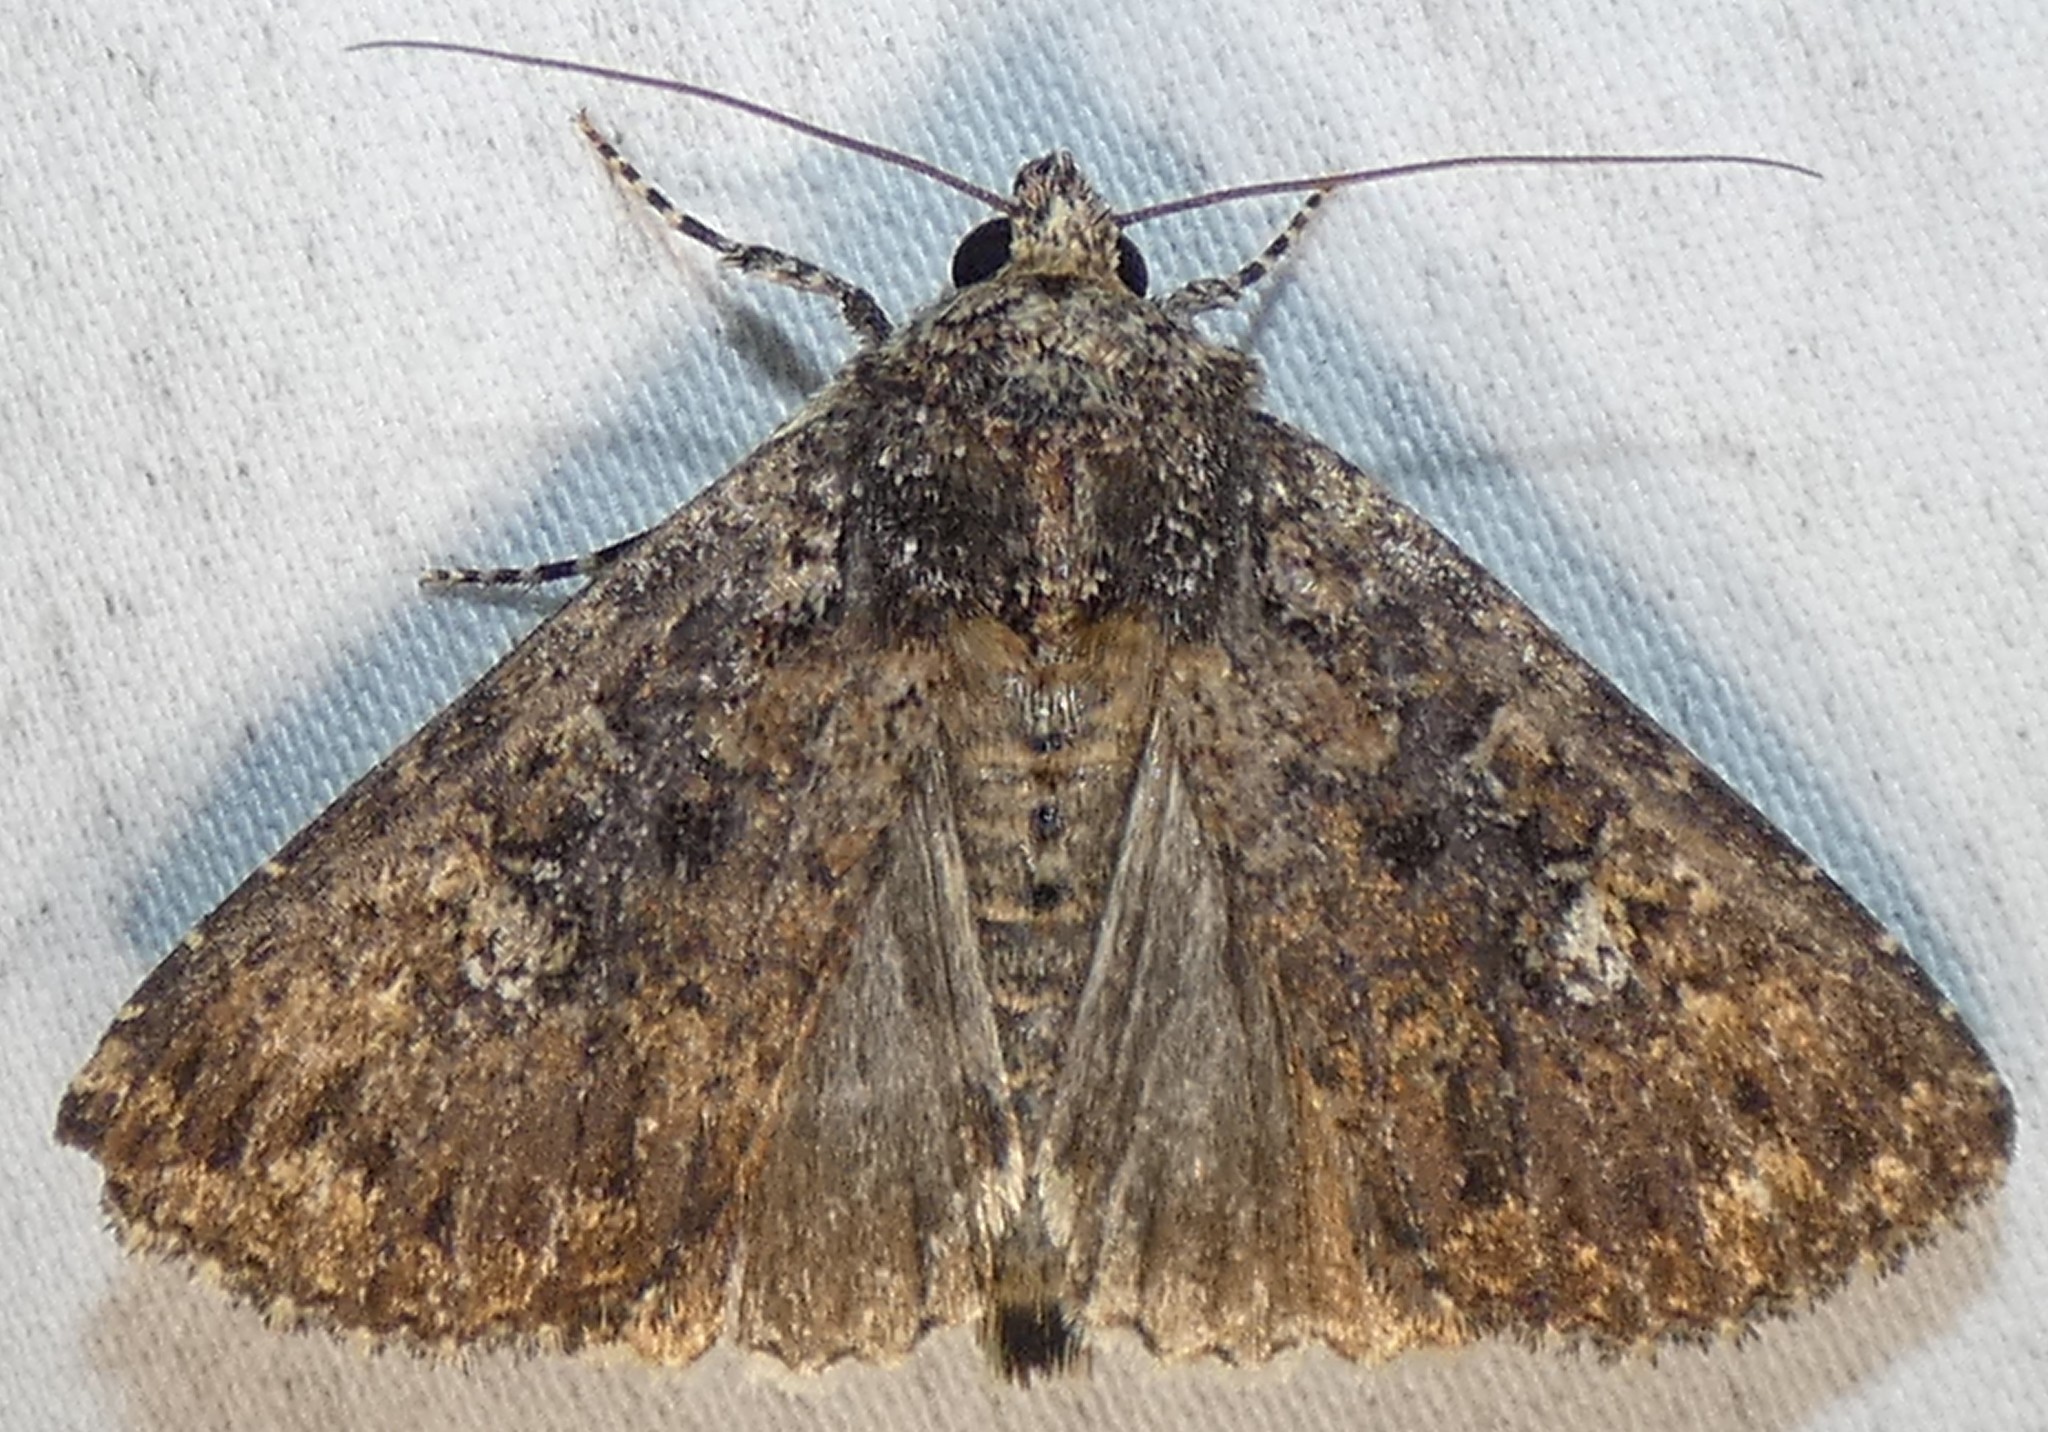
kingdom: Animalia
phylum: Arthropoda
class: Insecta
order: Lepidoptera
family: Noctuidae
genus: Condica
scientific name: Condica vecors
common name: Dusky groundling
